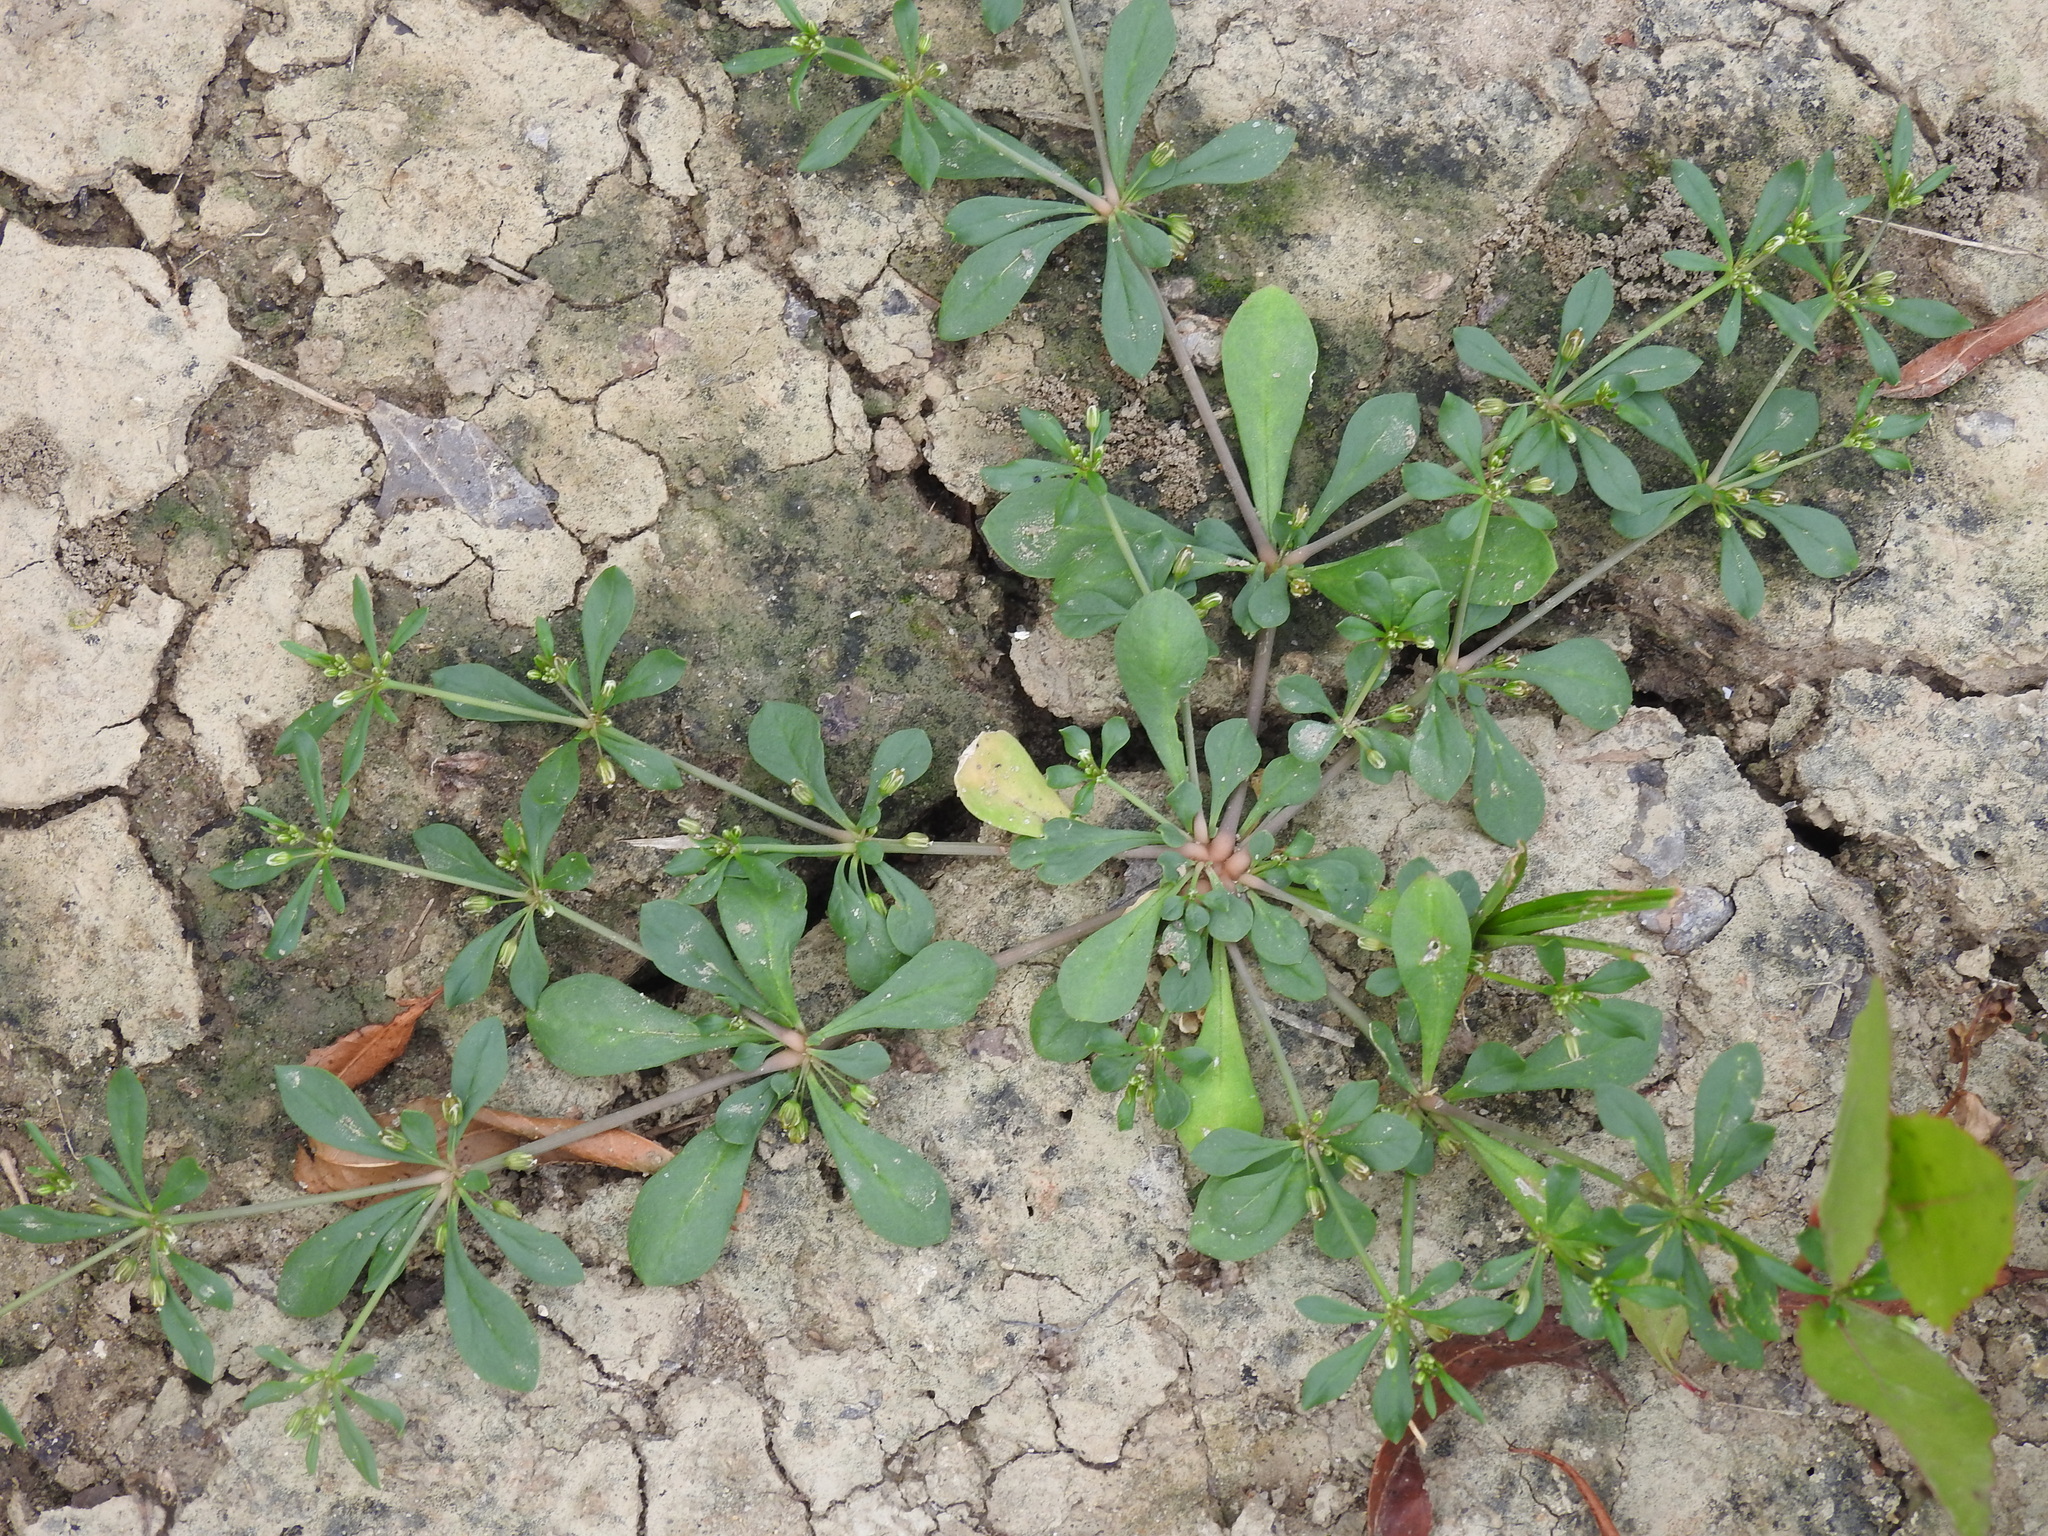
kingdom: Plantae
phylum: Tracheophyta
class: Magnoliopsida
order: Caryophyllales
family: Molluginaceae
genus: Mollugo
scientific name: Mollugo verticillata
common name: Green carpetweed
